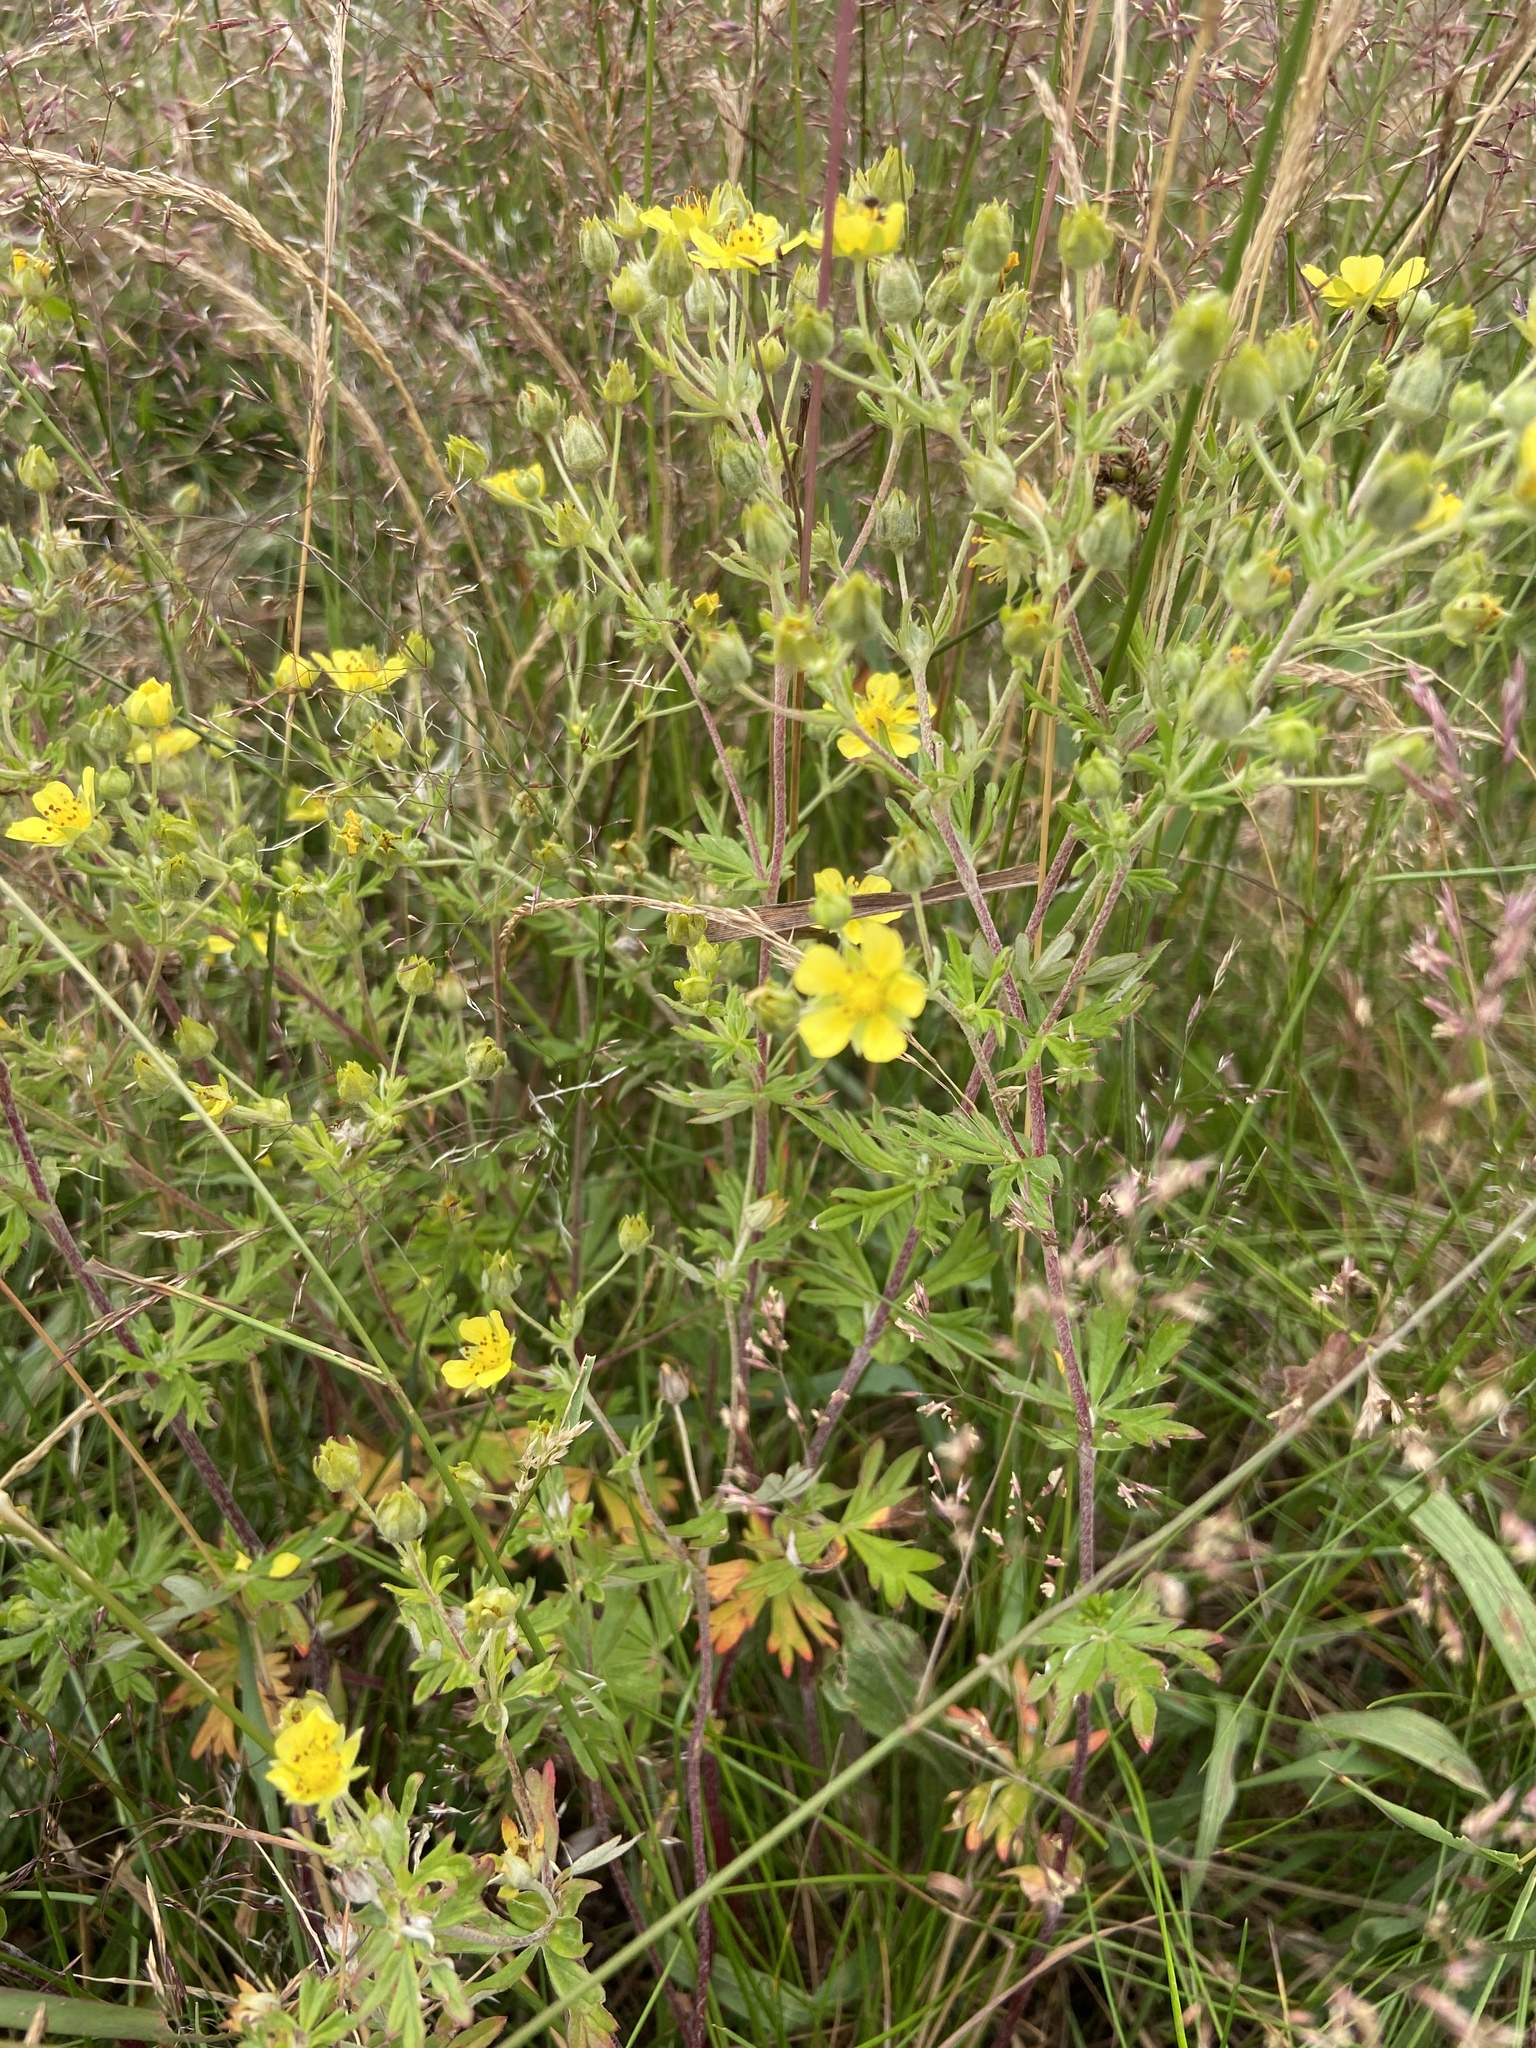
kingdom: Plantae
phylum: Tracheophyta
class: Magnoliopsida
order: Rosales
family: Rosaceae
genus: Potentilla
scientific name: Potentilla argentea
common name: Hoary cinquefoil
